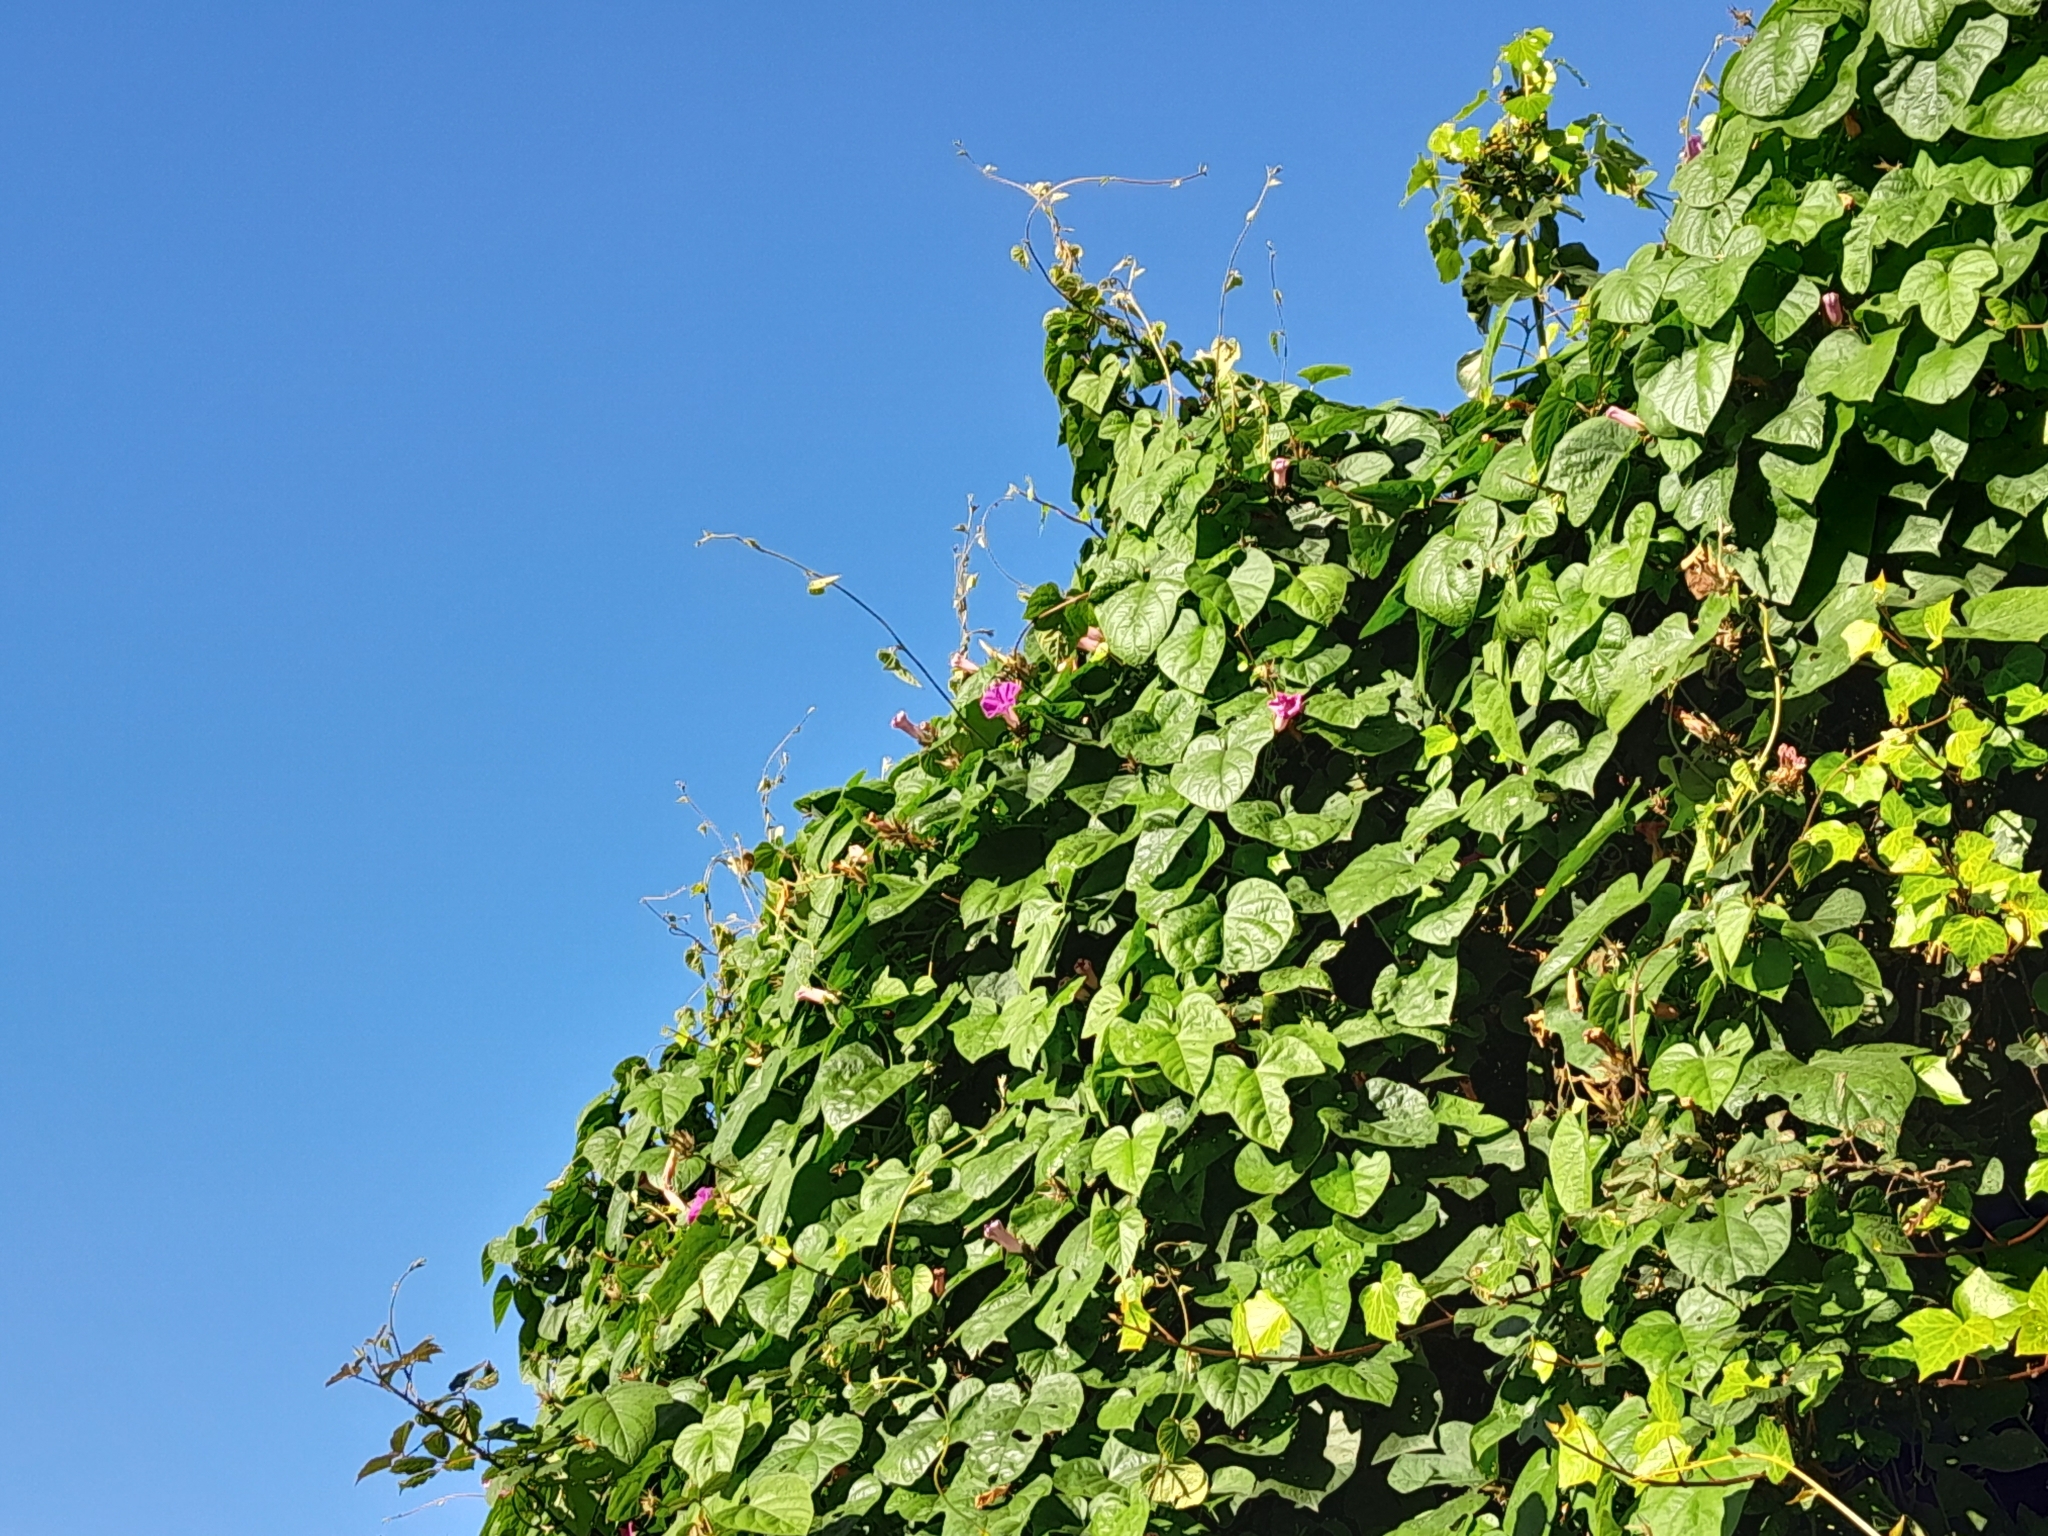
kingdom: Plantae
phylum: Tracheophyta
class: Magnoliopsida
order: Solanales
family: Convolvulaceae
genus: Ipomoea
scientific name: Ipomoea indica
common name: Blue dawnflower
